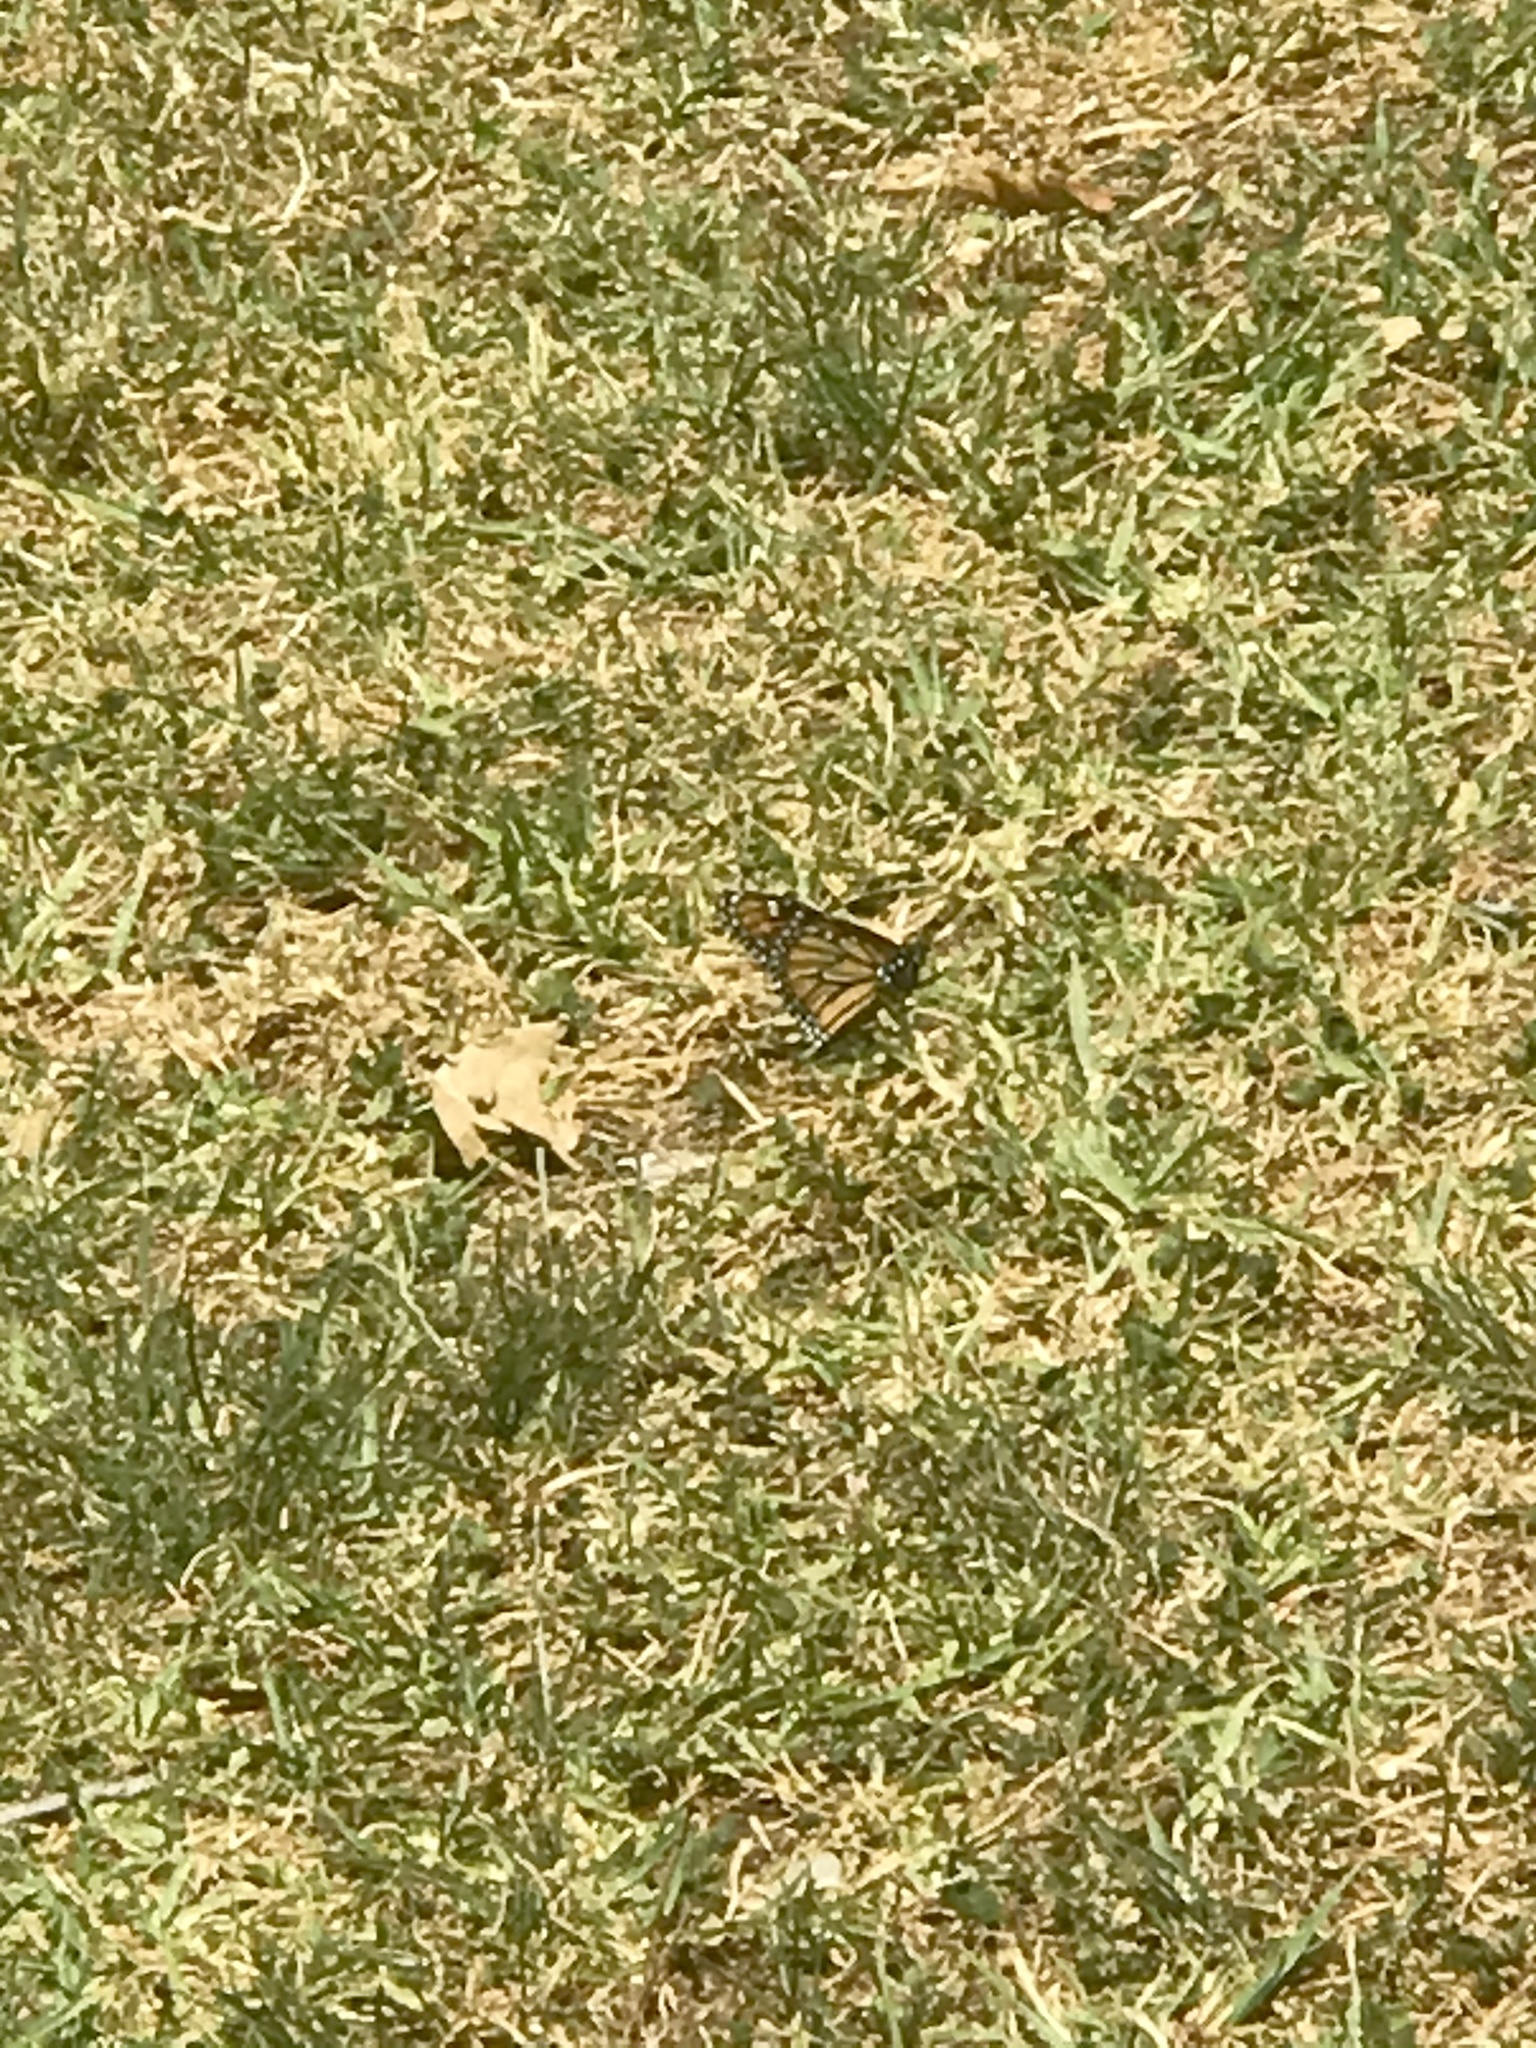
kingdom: Animalia
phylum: Arthropoda
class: Insecta
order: Lepidoptera
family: Nymphalidae
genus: Danaus
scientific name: Danaus plexippus
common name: Monarch
